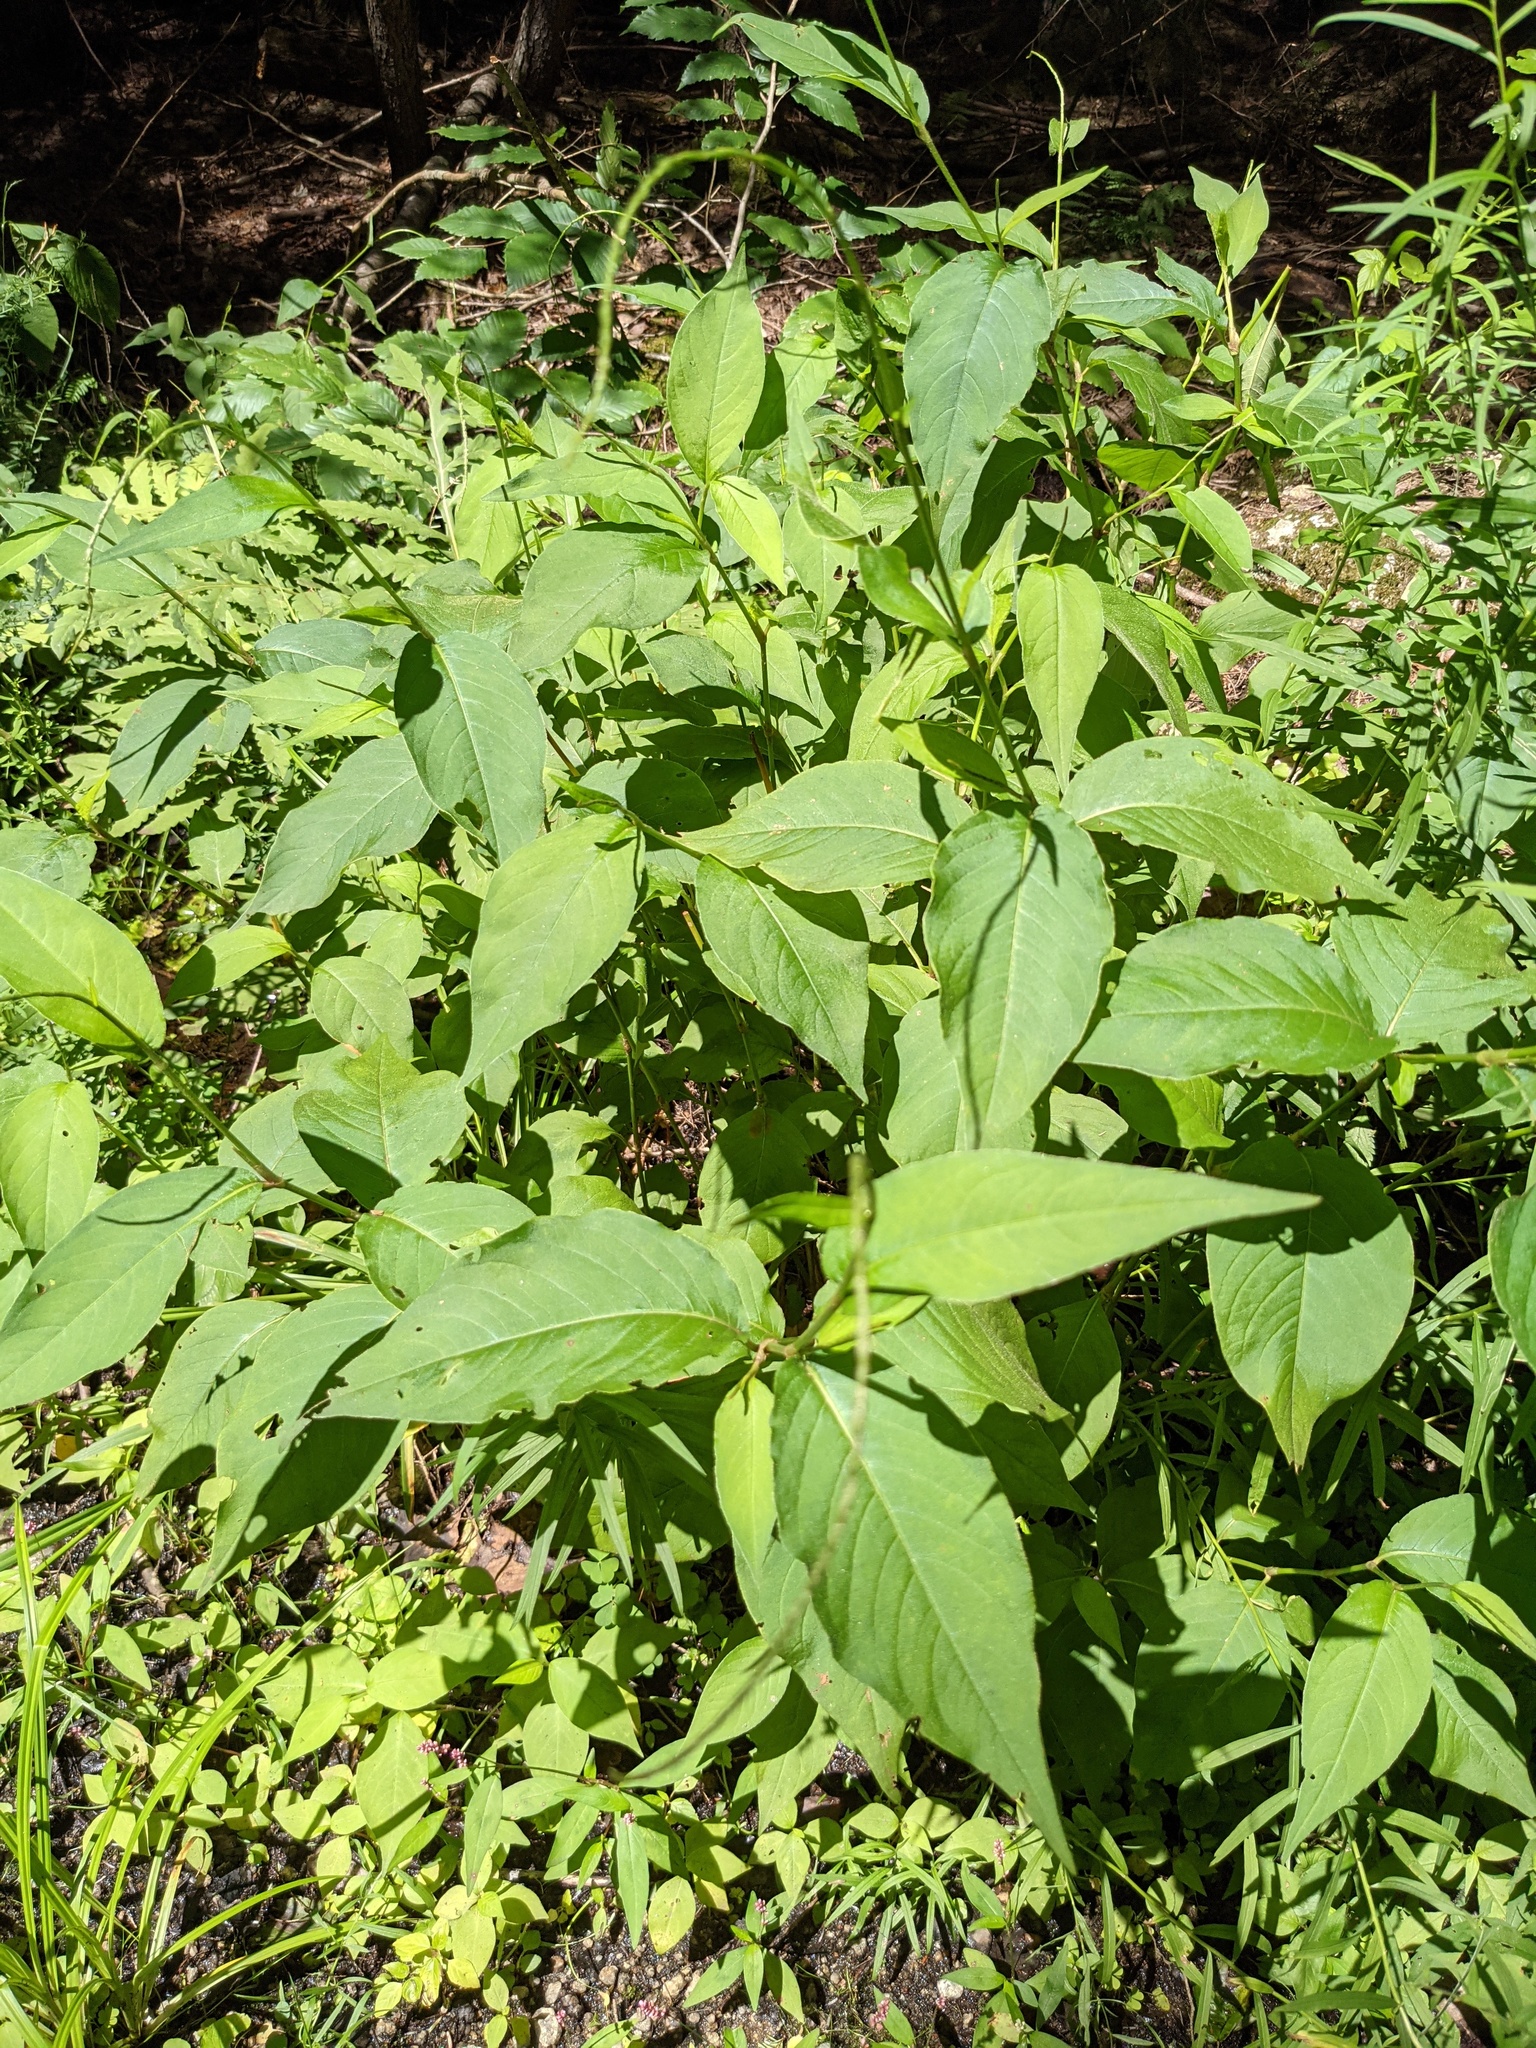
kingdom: Plantae
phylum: Tracheophyta
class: Magnoliopsida
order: Caryophyllales
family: Polygonaceae
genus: Persicaria
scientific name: Persicaria virginiana
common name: Jumpseed
